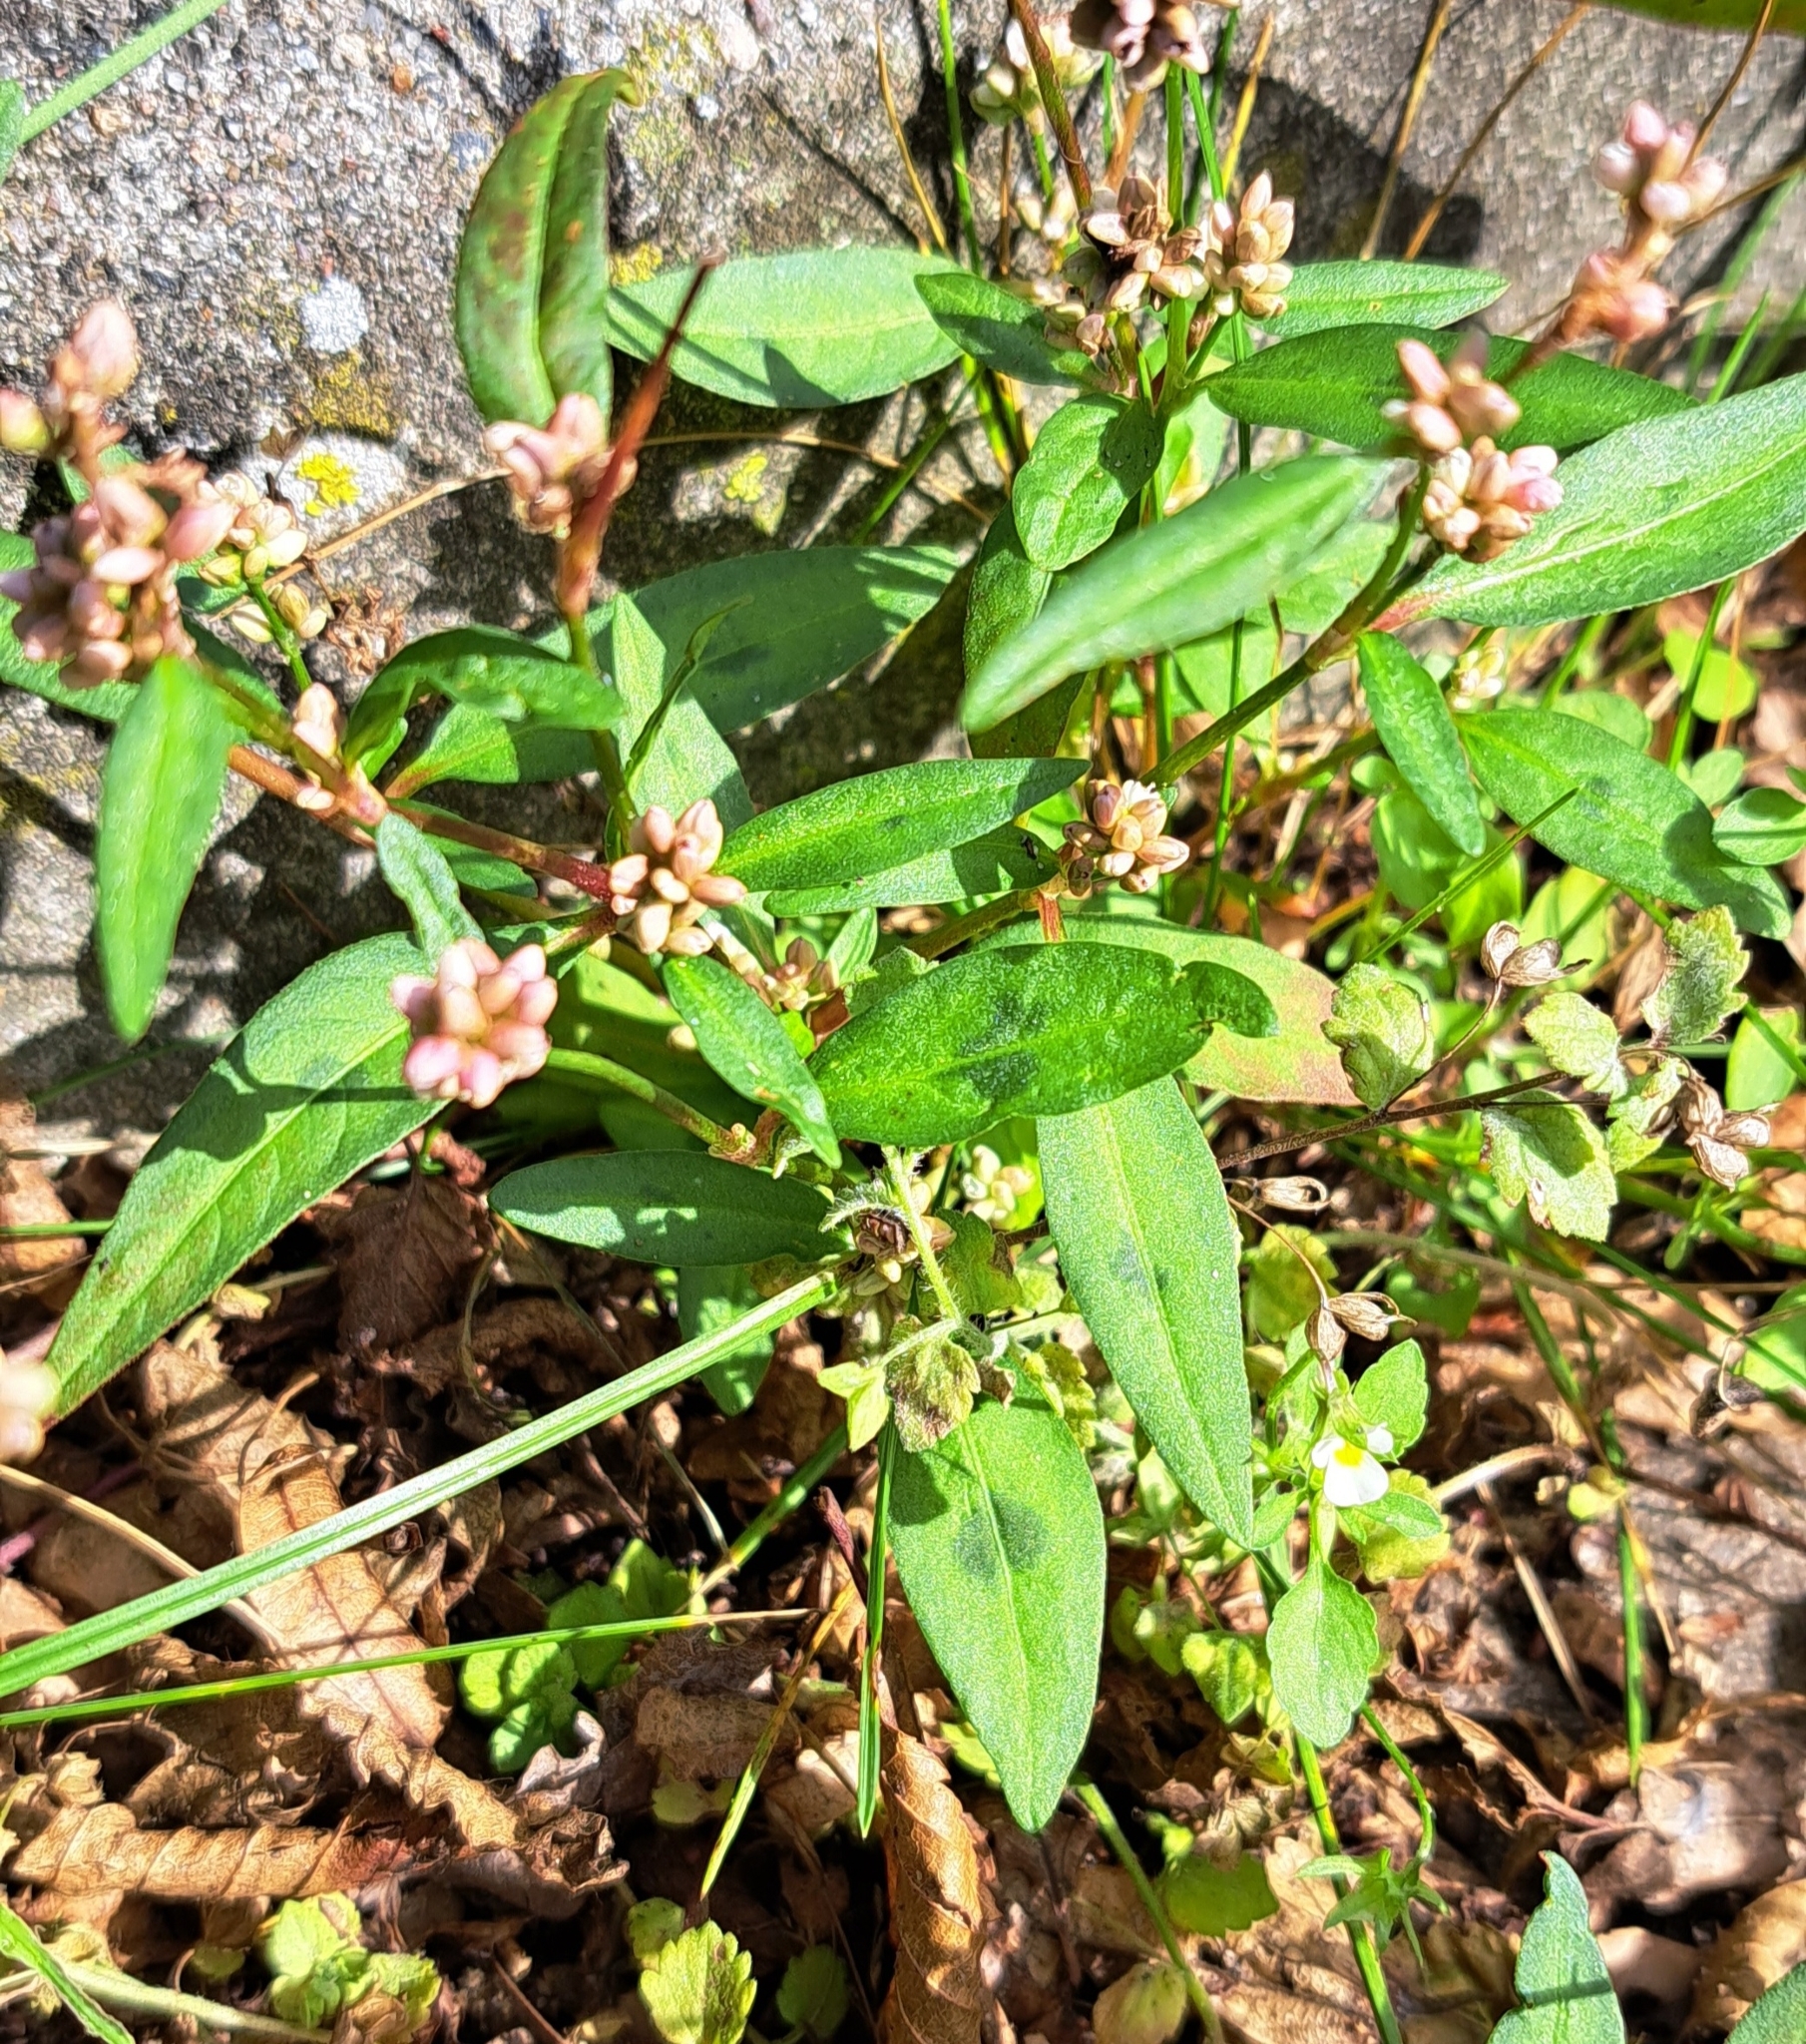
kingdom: Plantae
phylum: Tracheophyta
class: Magnoliopsida
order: Caryophyllales
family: Polygonaceae
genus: Persicaria
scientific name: Persicaria maculosa
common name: Redshank
